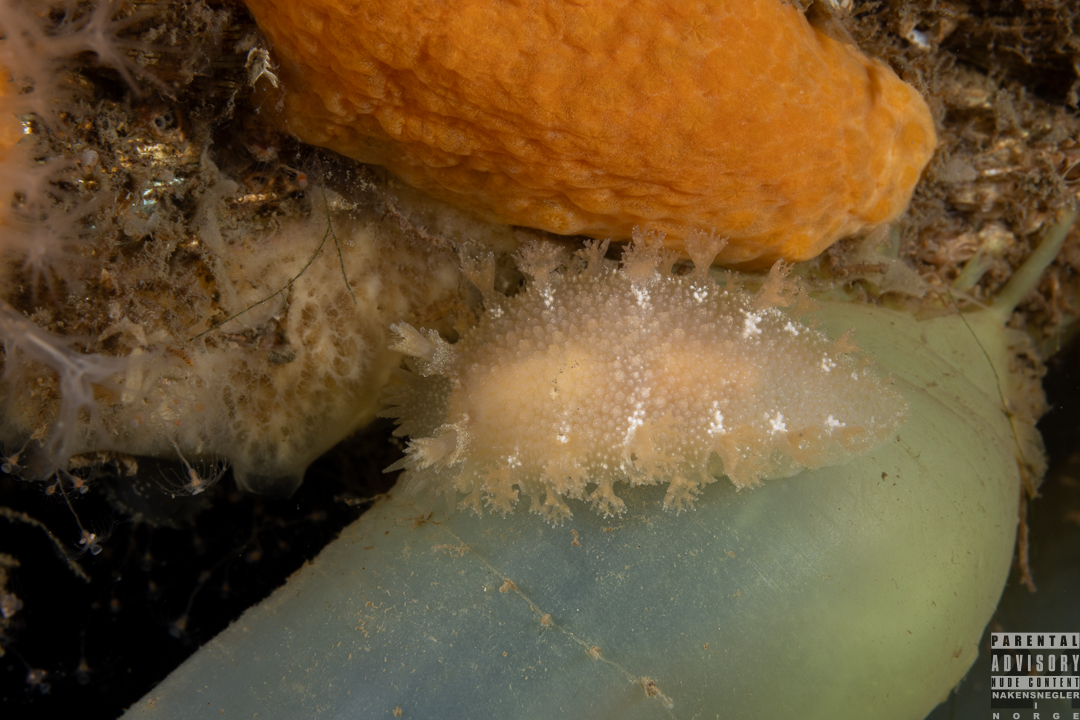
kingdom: Animalia
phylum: Mollusca
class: Gastropoda
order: Nudibranchia
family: Tritoniidae
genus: Tritonia
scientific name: Tritonia hombergii
